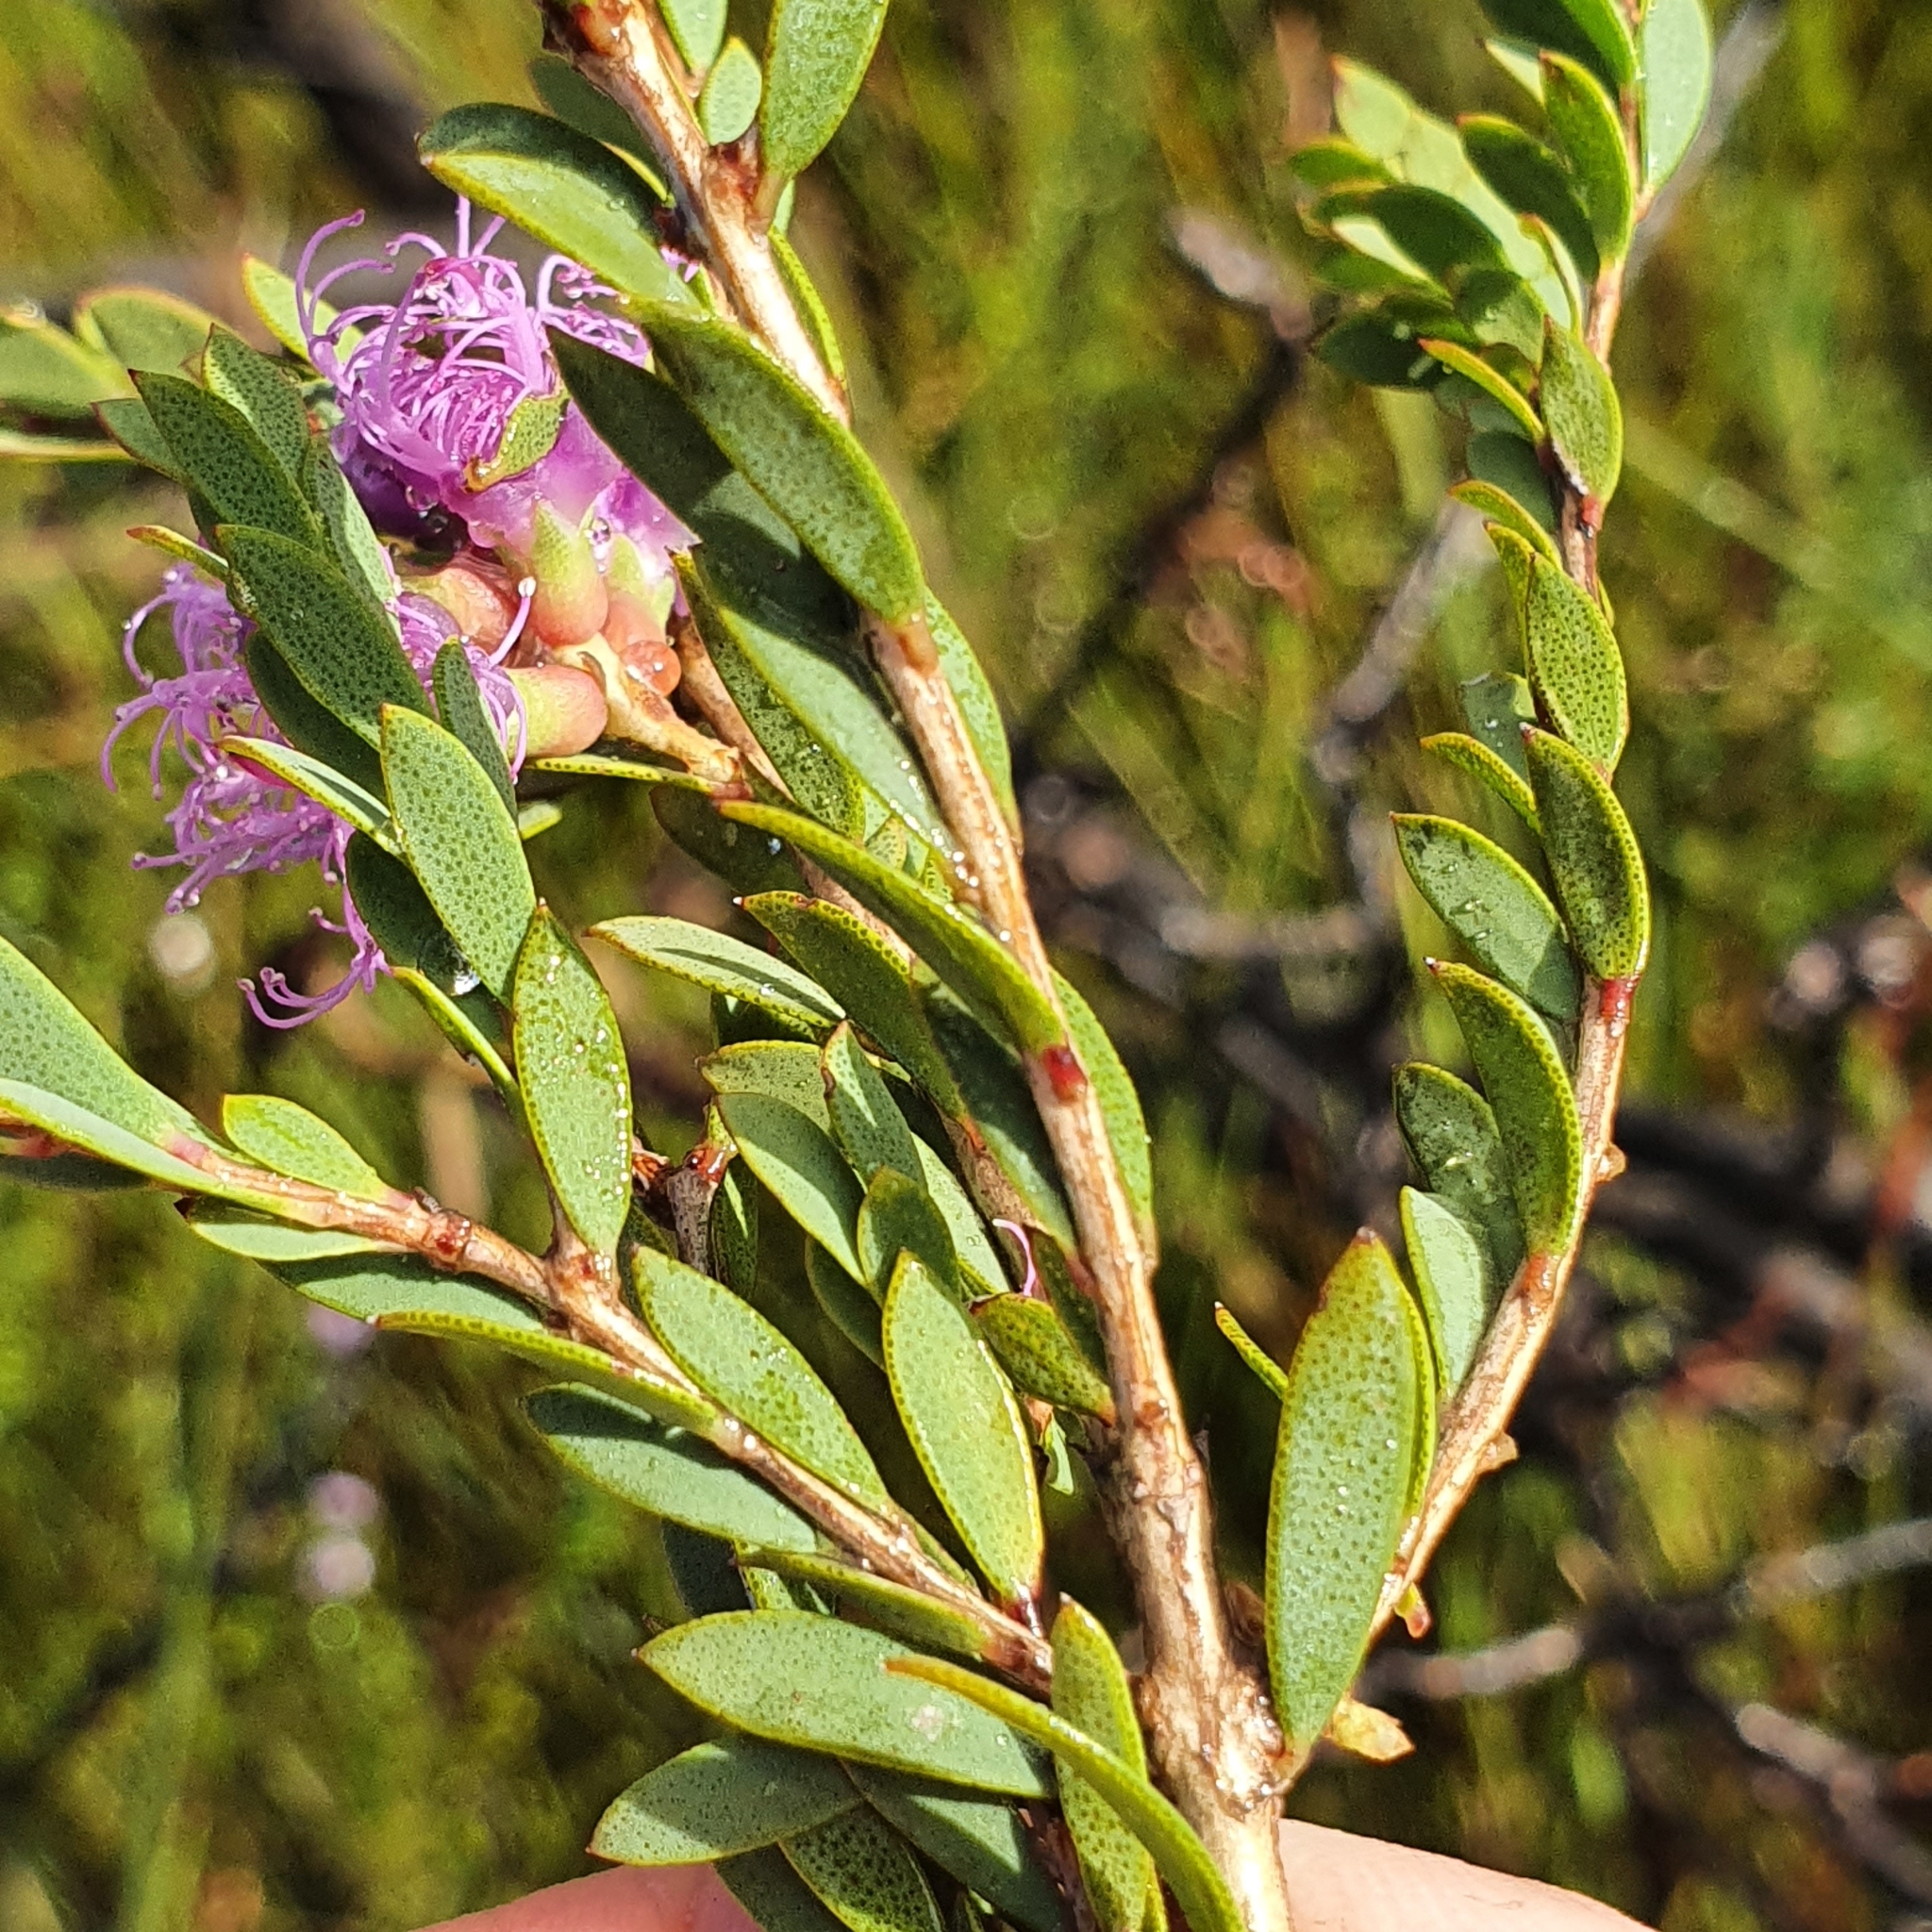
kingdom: Plantae
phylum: Tracheophyta
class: Magnoliopsida
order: Myrtales
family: Myrtaceae
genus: Melaleuca
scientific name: Melaleuca thymifolia
